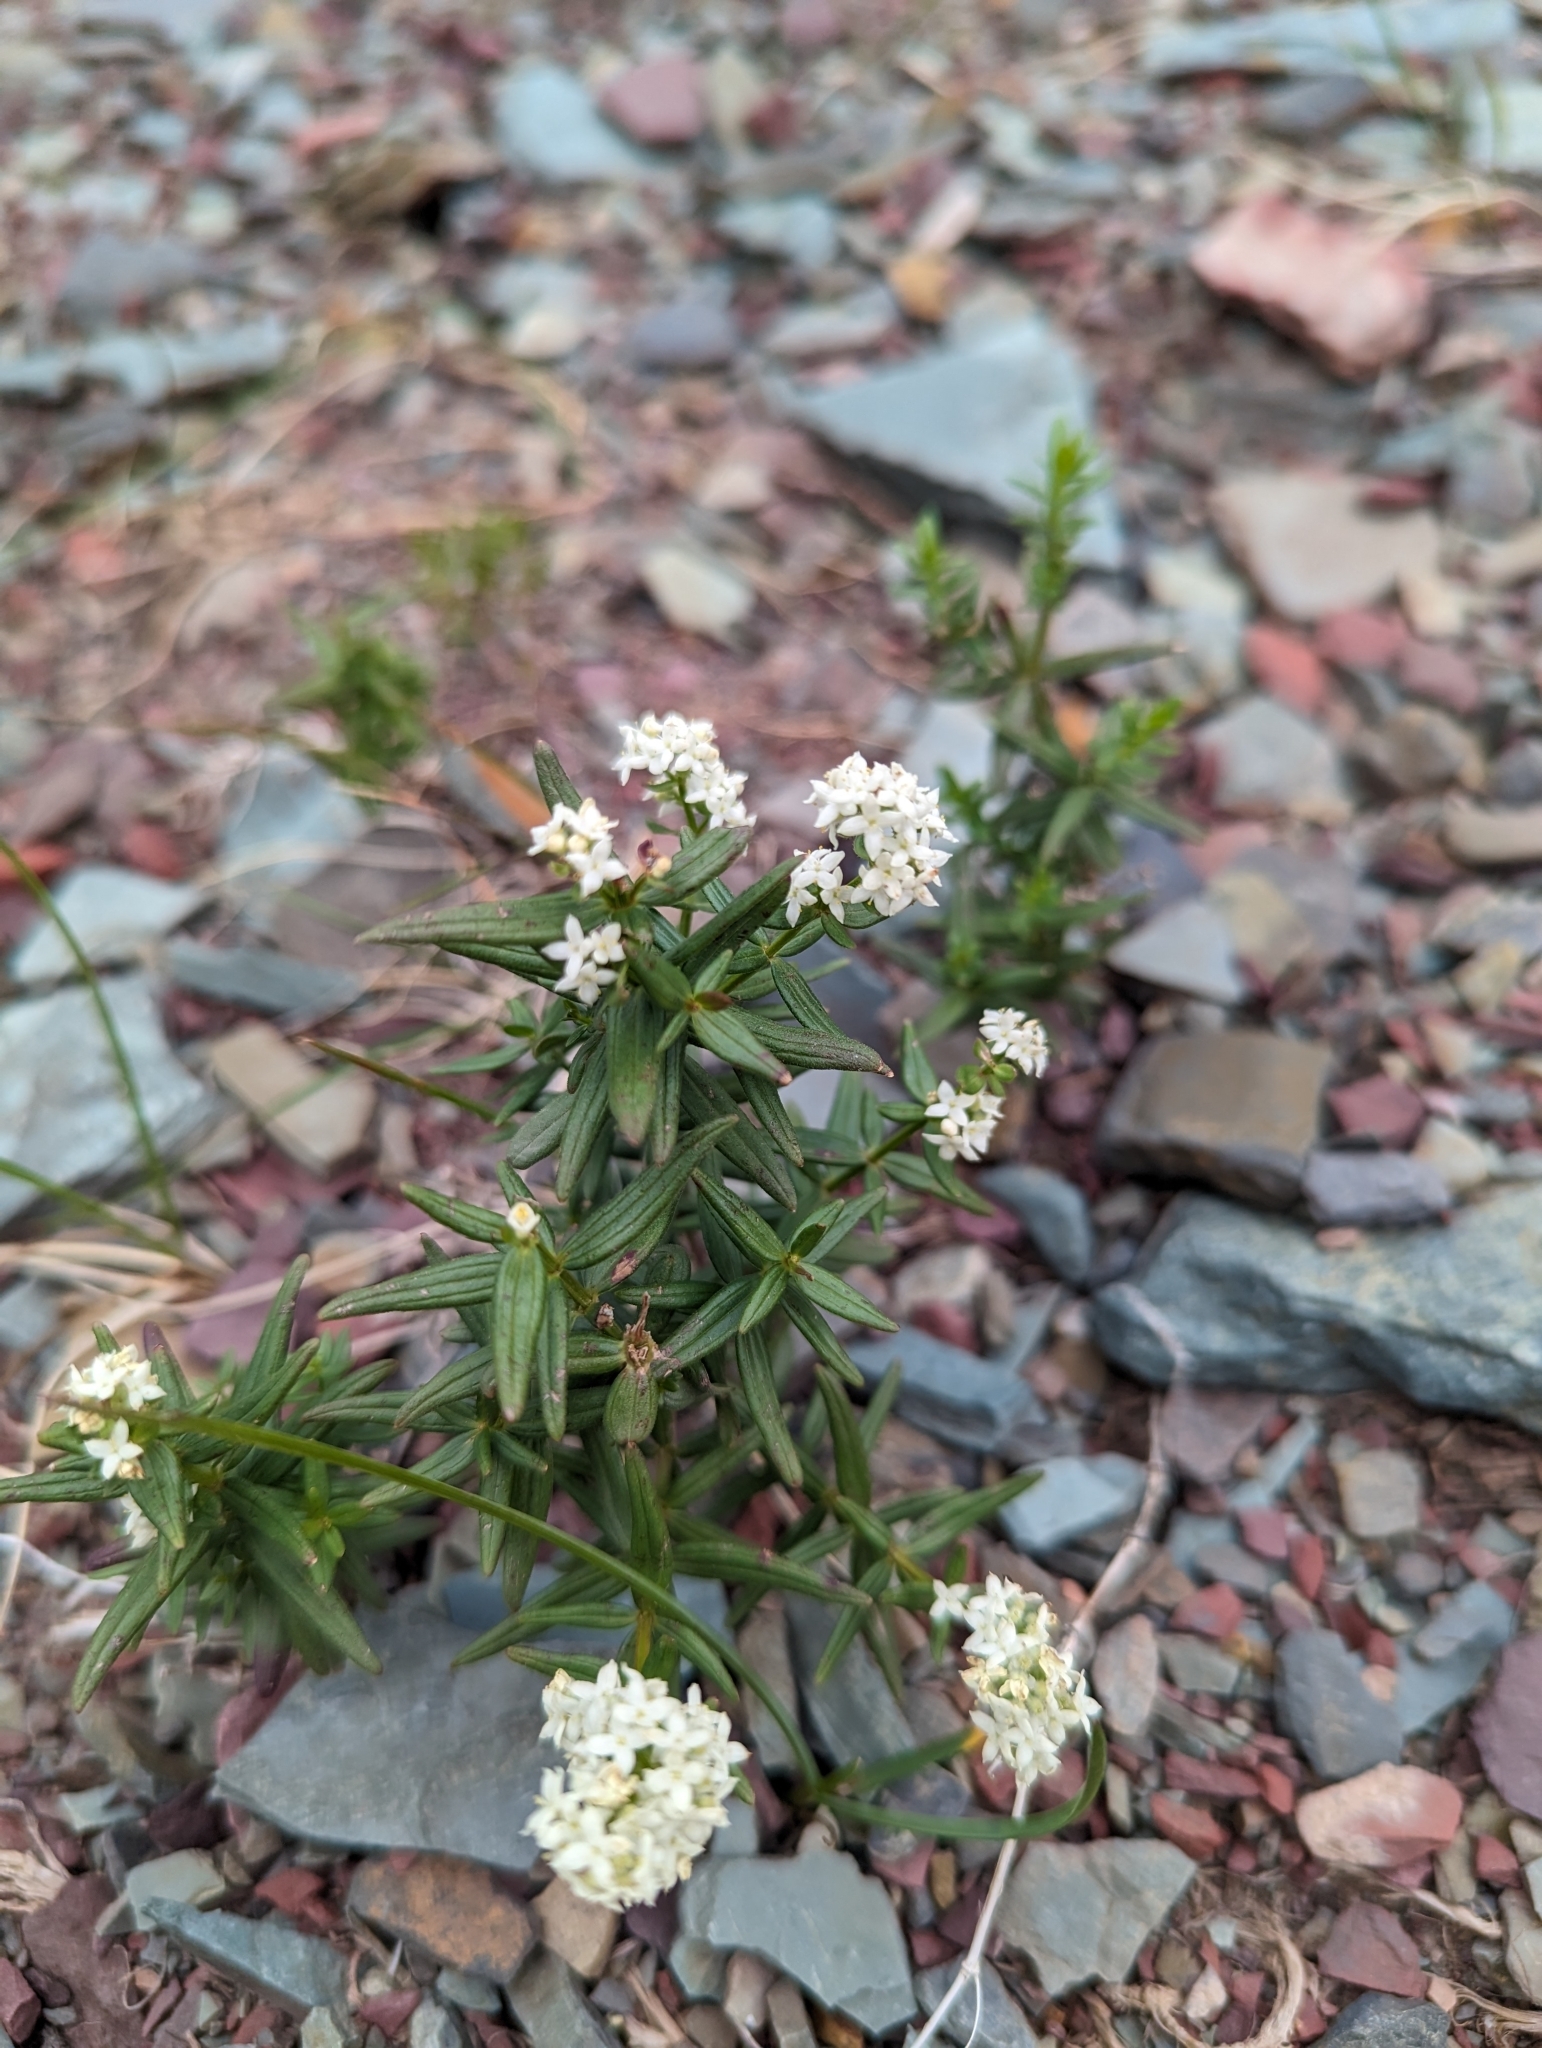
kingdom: Plantae
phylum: Tracheophyta
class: Magnoliopsida
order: Gentianales
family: Rubiaceae
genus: Galium
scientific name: Galium boreale
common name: Northern bedstraw
